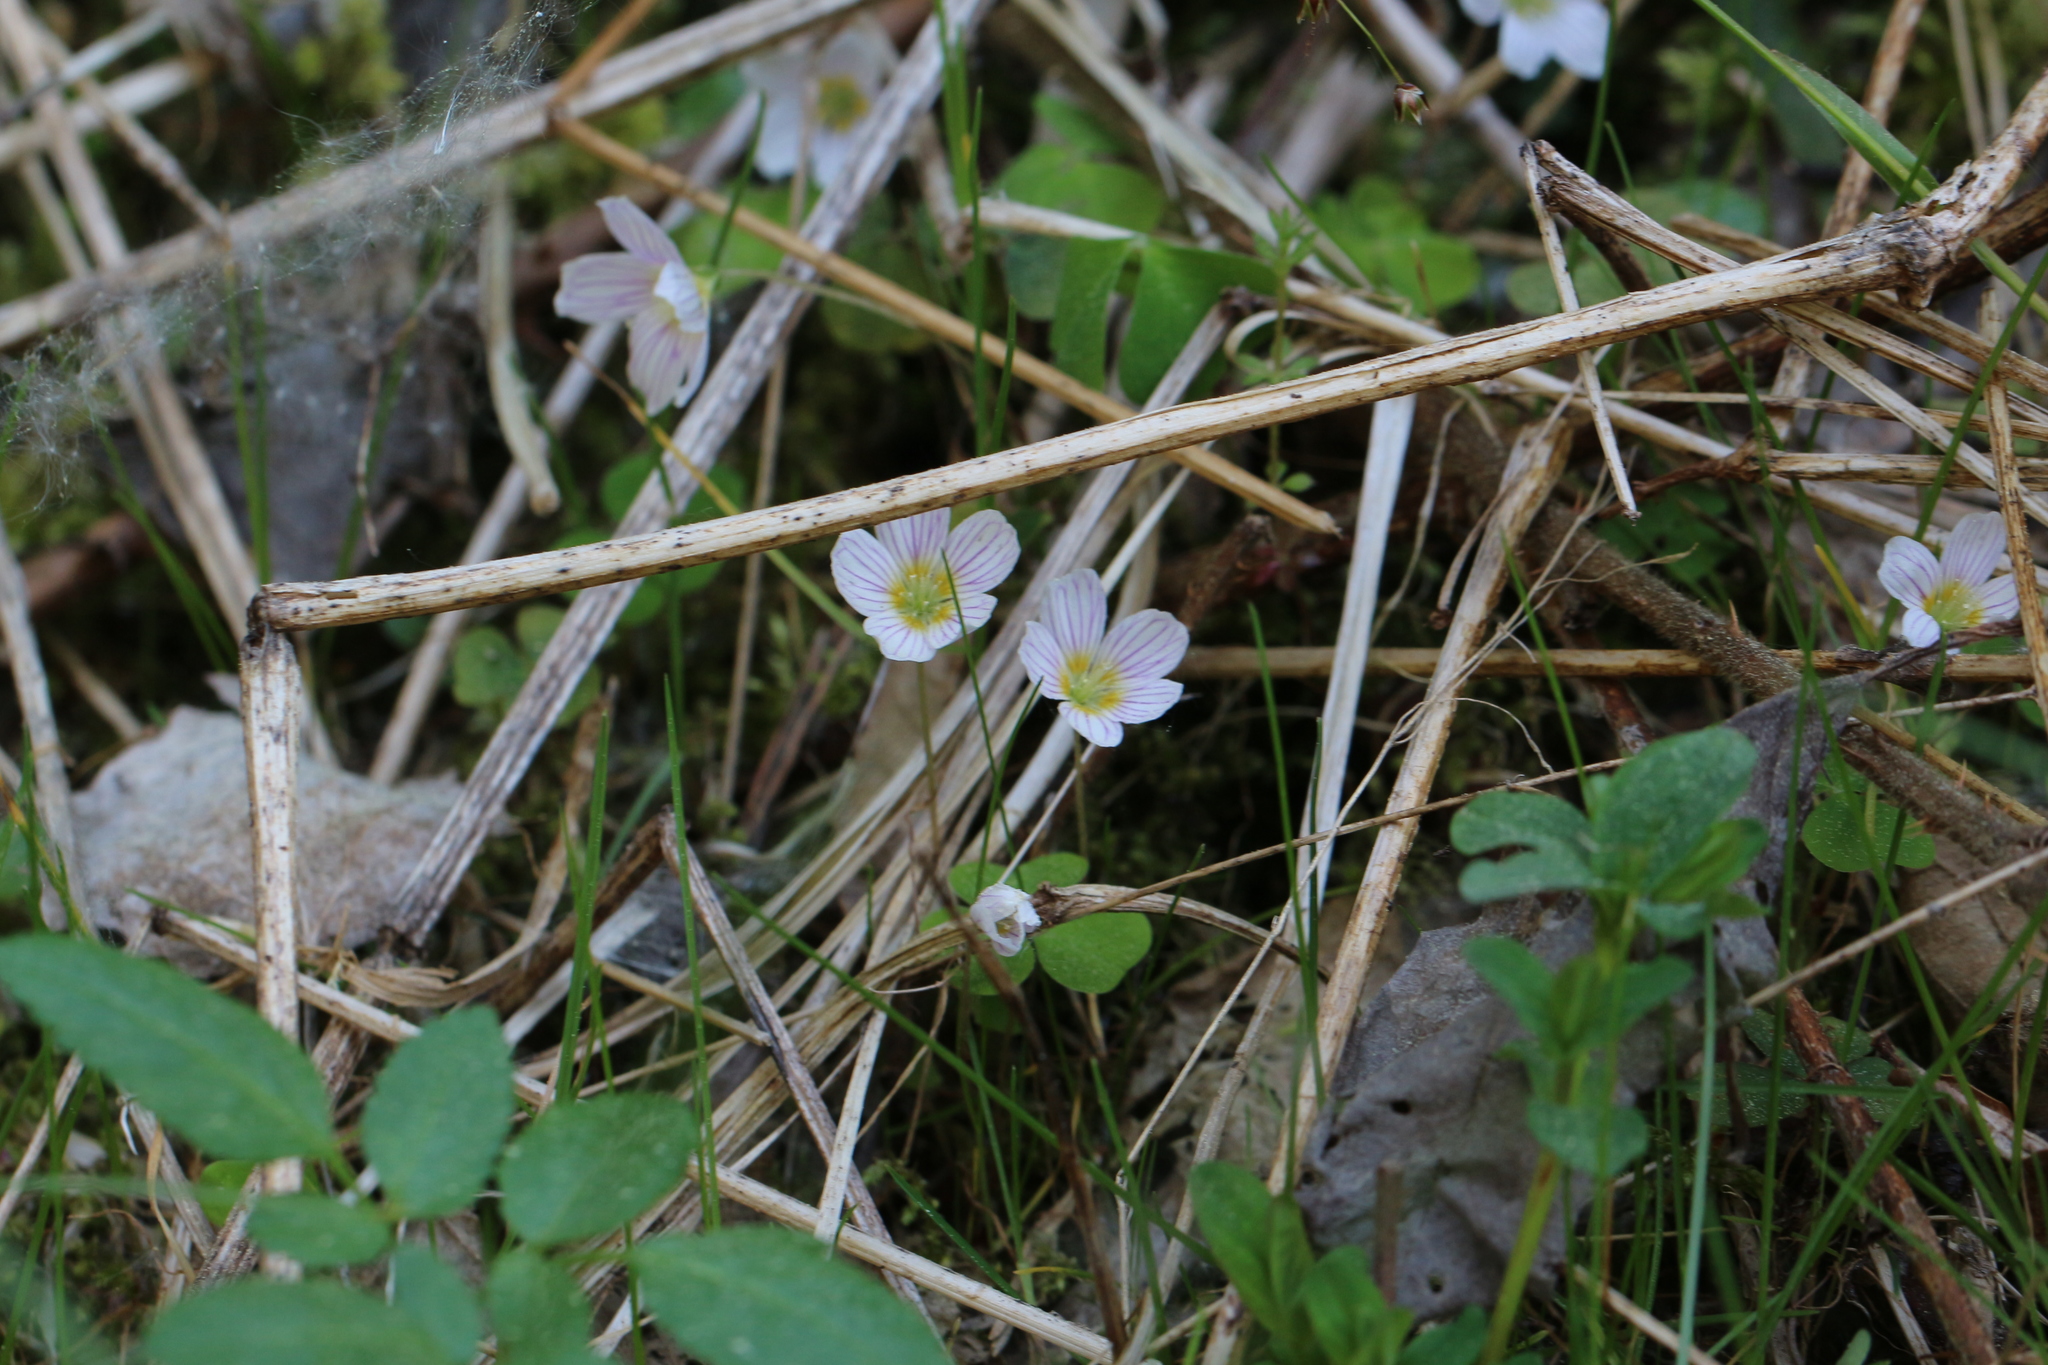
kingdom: Plantae
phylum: Tracheophyta
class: Magnoliopsida
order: Oxalidales
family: Oxalidaceae
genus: Oxalis
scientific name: Oxalis acetosella
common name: Wood-sorrel
